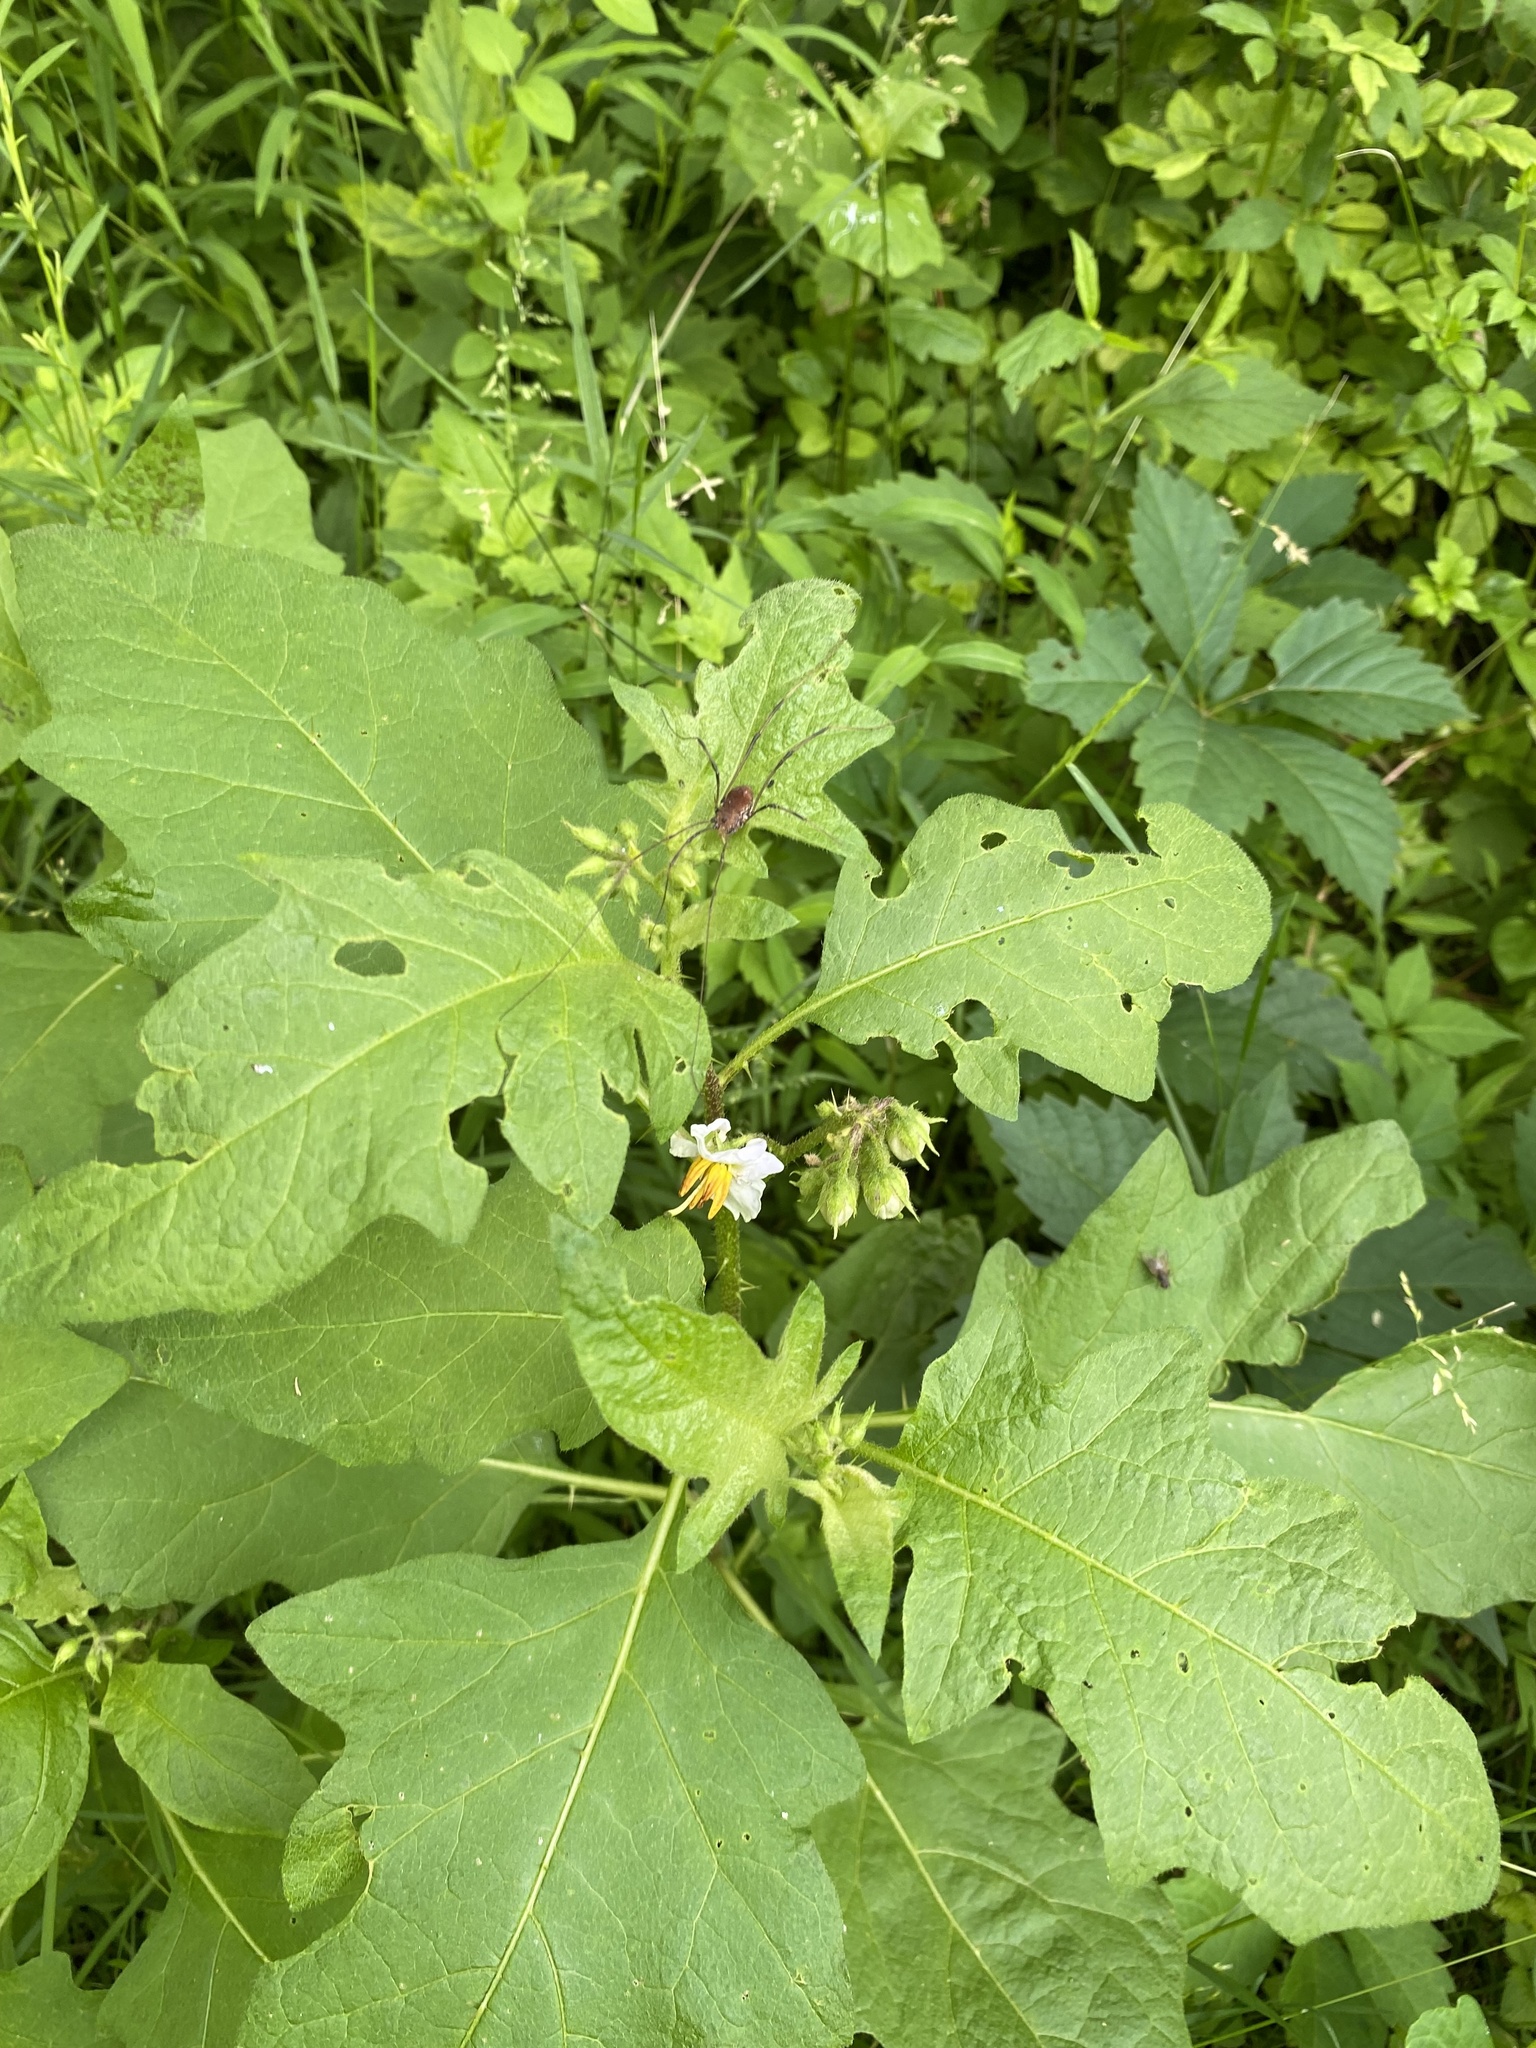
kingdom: Plantae
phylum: Tracheophyta
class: Magnoliopsida
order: Solanales
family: Solanaceae
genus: Solanum
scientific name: Solanum carolinense
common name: Horse-nettle
